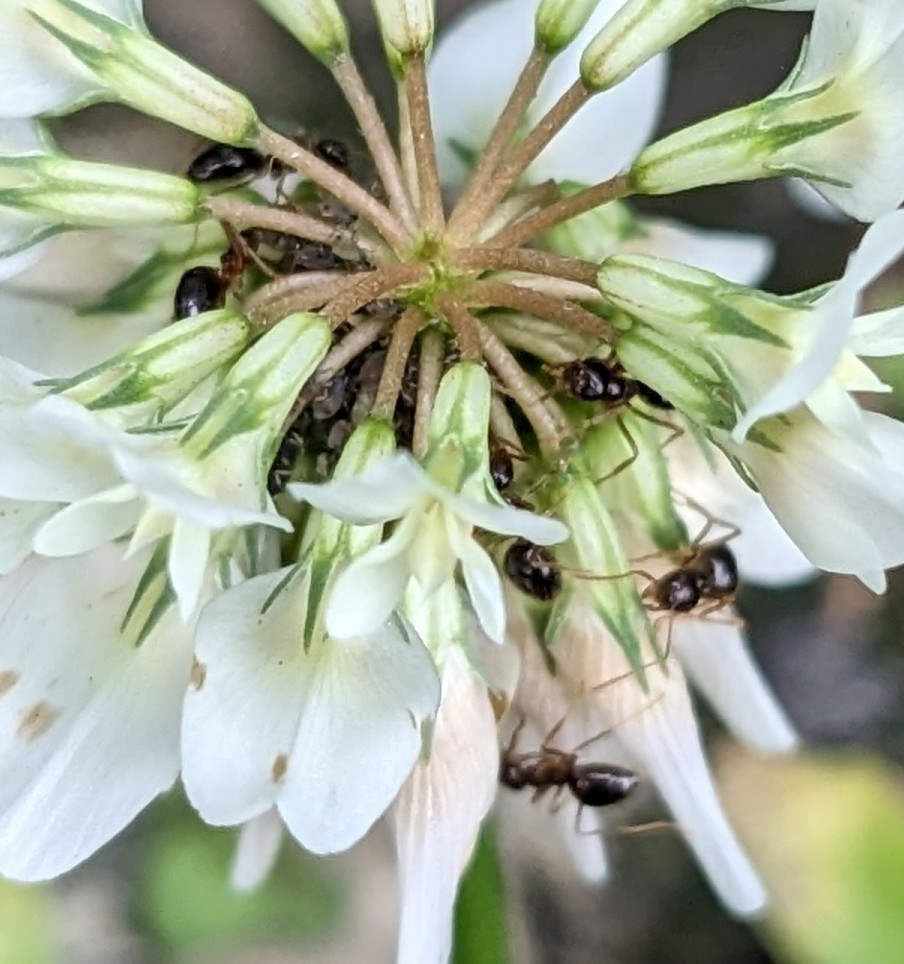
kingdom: Animalia
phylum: Arthropoda
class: Insecta
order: Hymenoptera
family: Formicidae
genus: Prenolepis
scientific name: Prenolepis imparis
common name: Small honey ant
